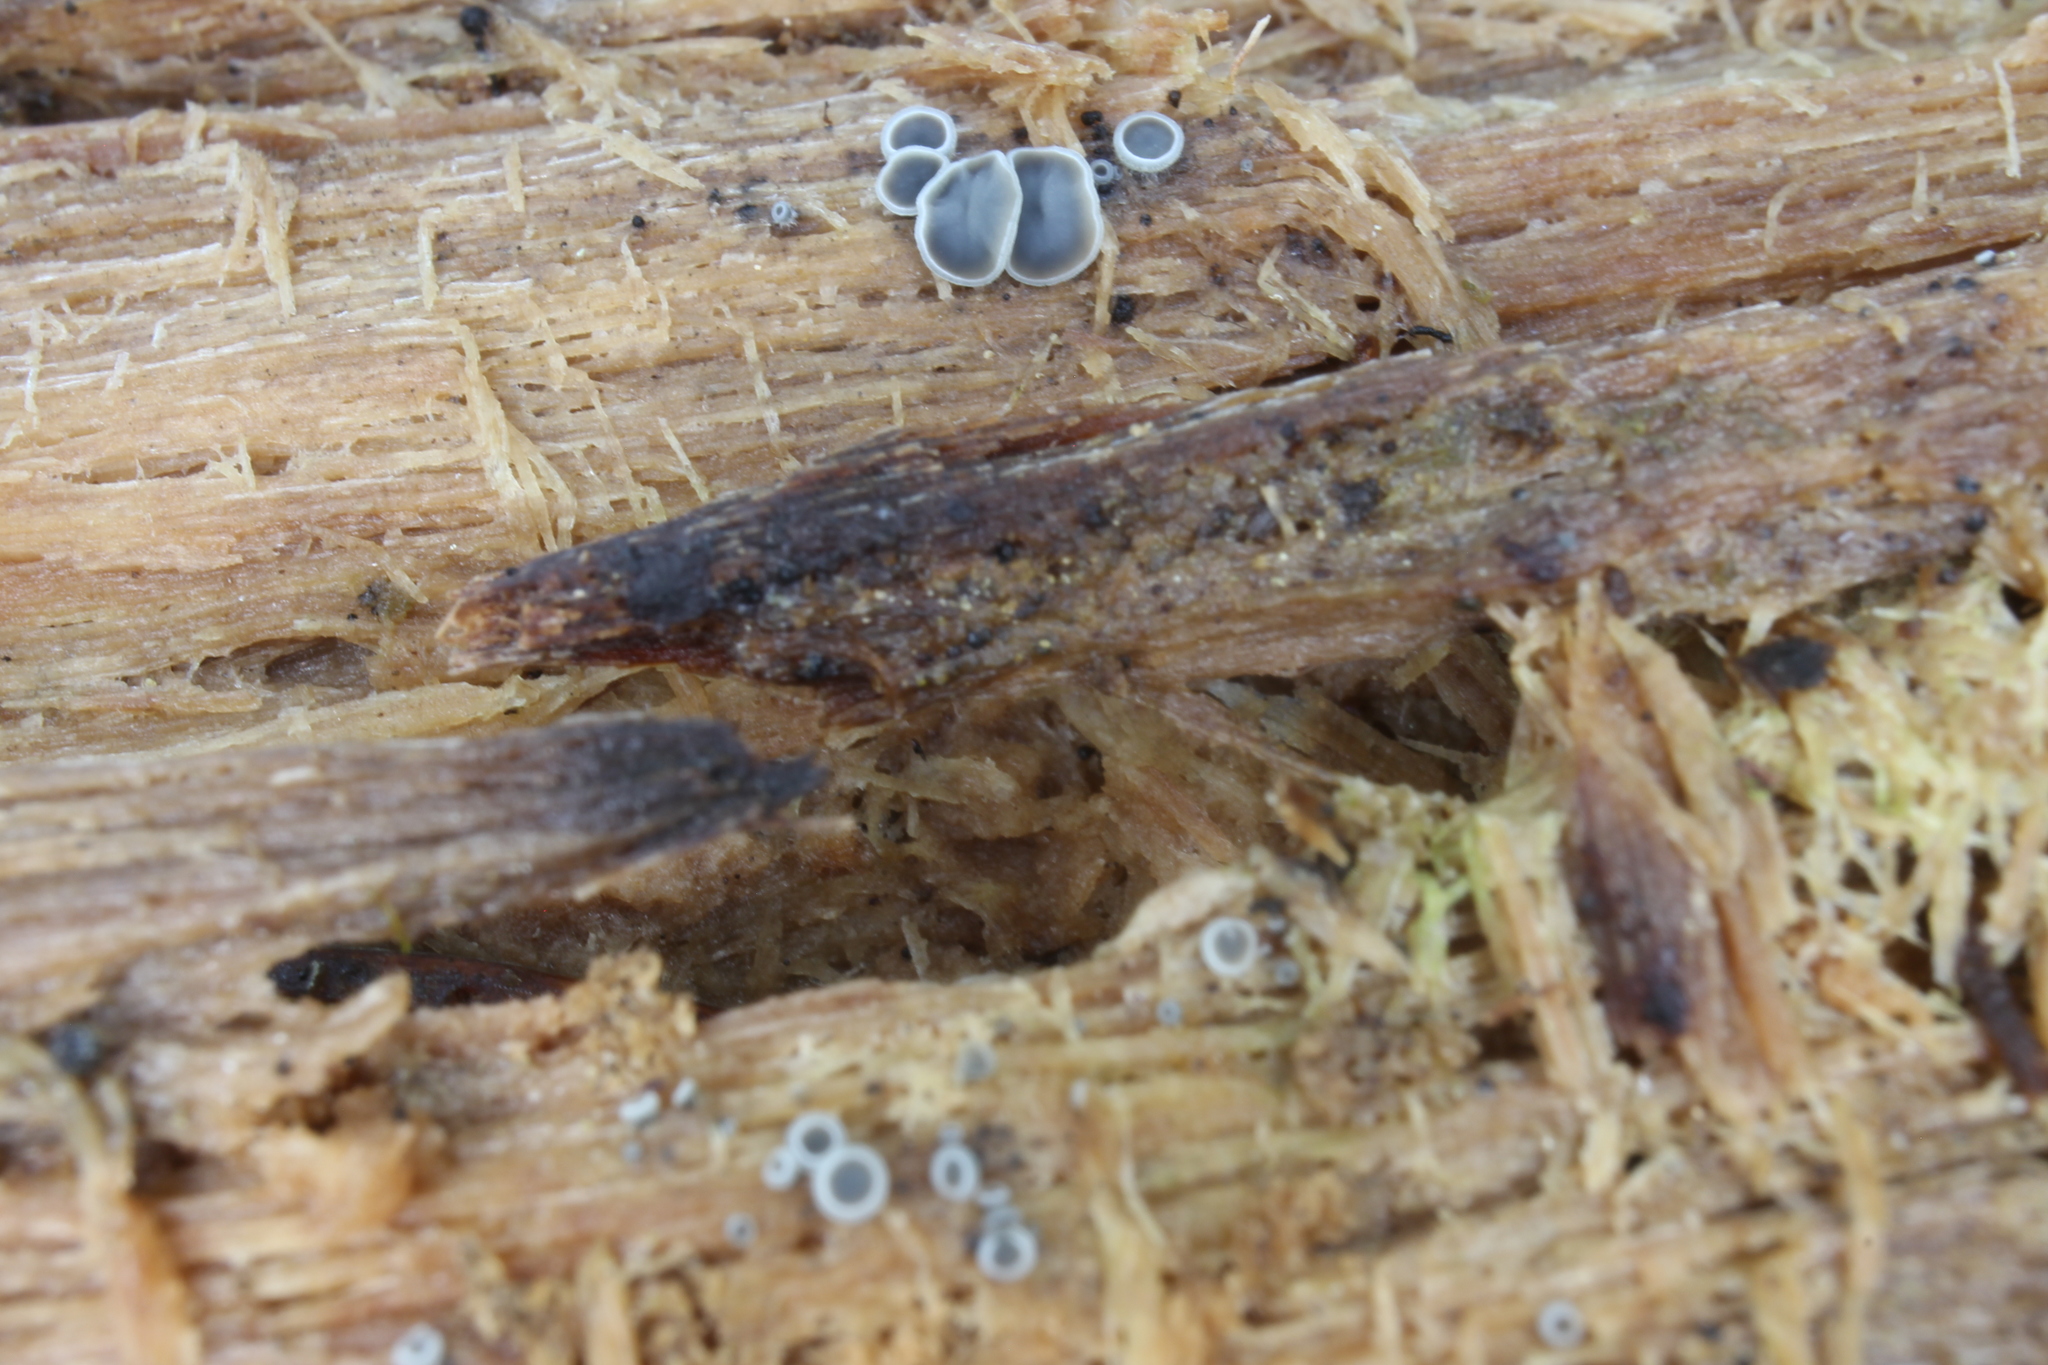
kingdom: Fungi
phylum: Ascomycota
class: Leotiomycetes
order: Helotiales
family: Mollisiaceae
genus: Mollisia
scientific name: Mollisia cinerea
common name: Common grey disco
